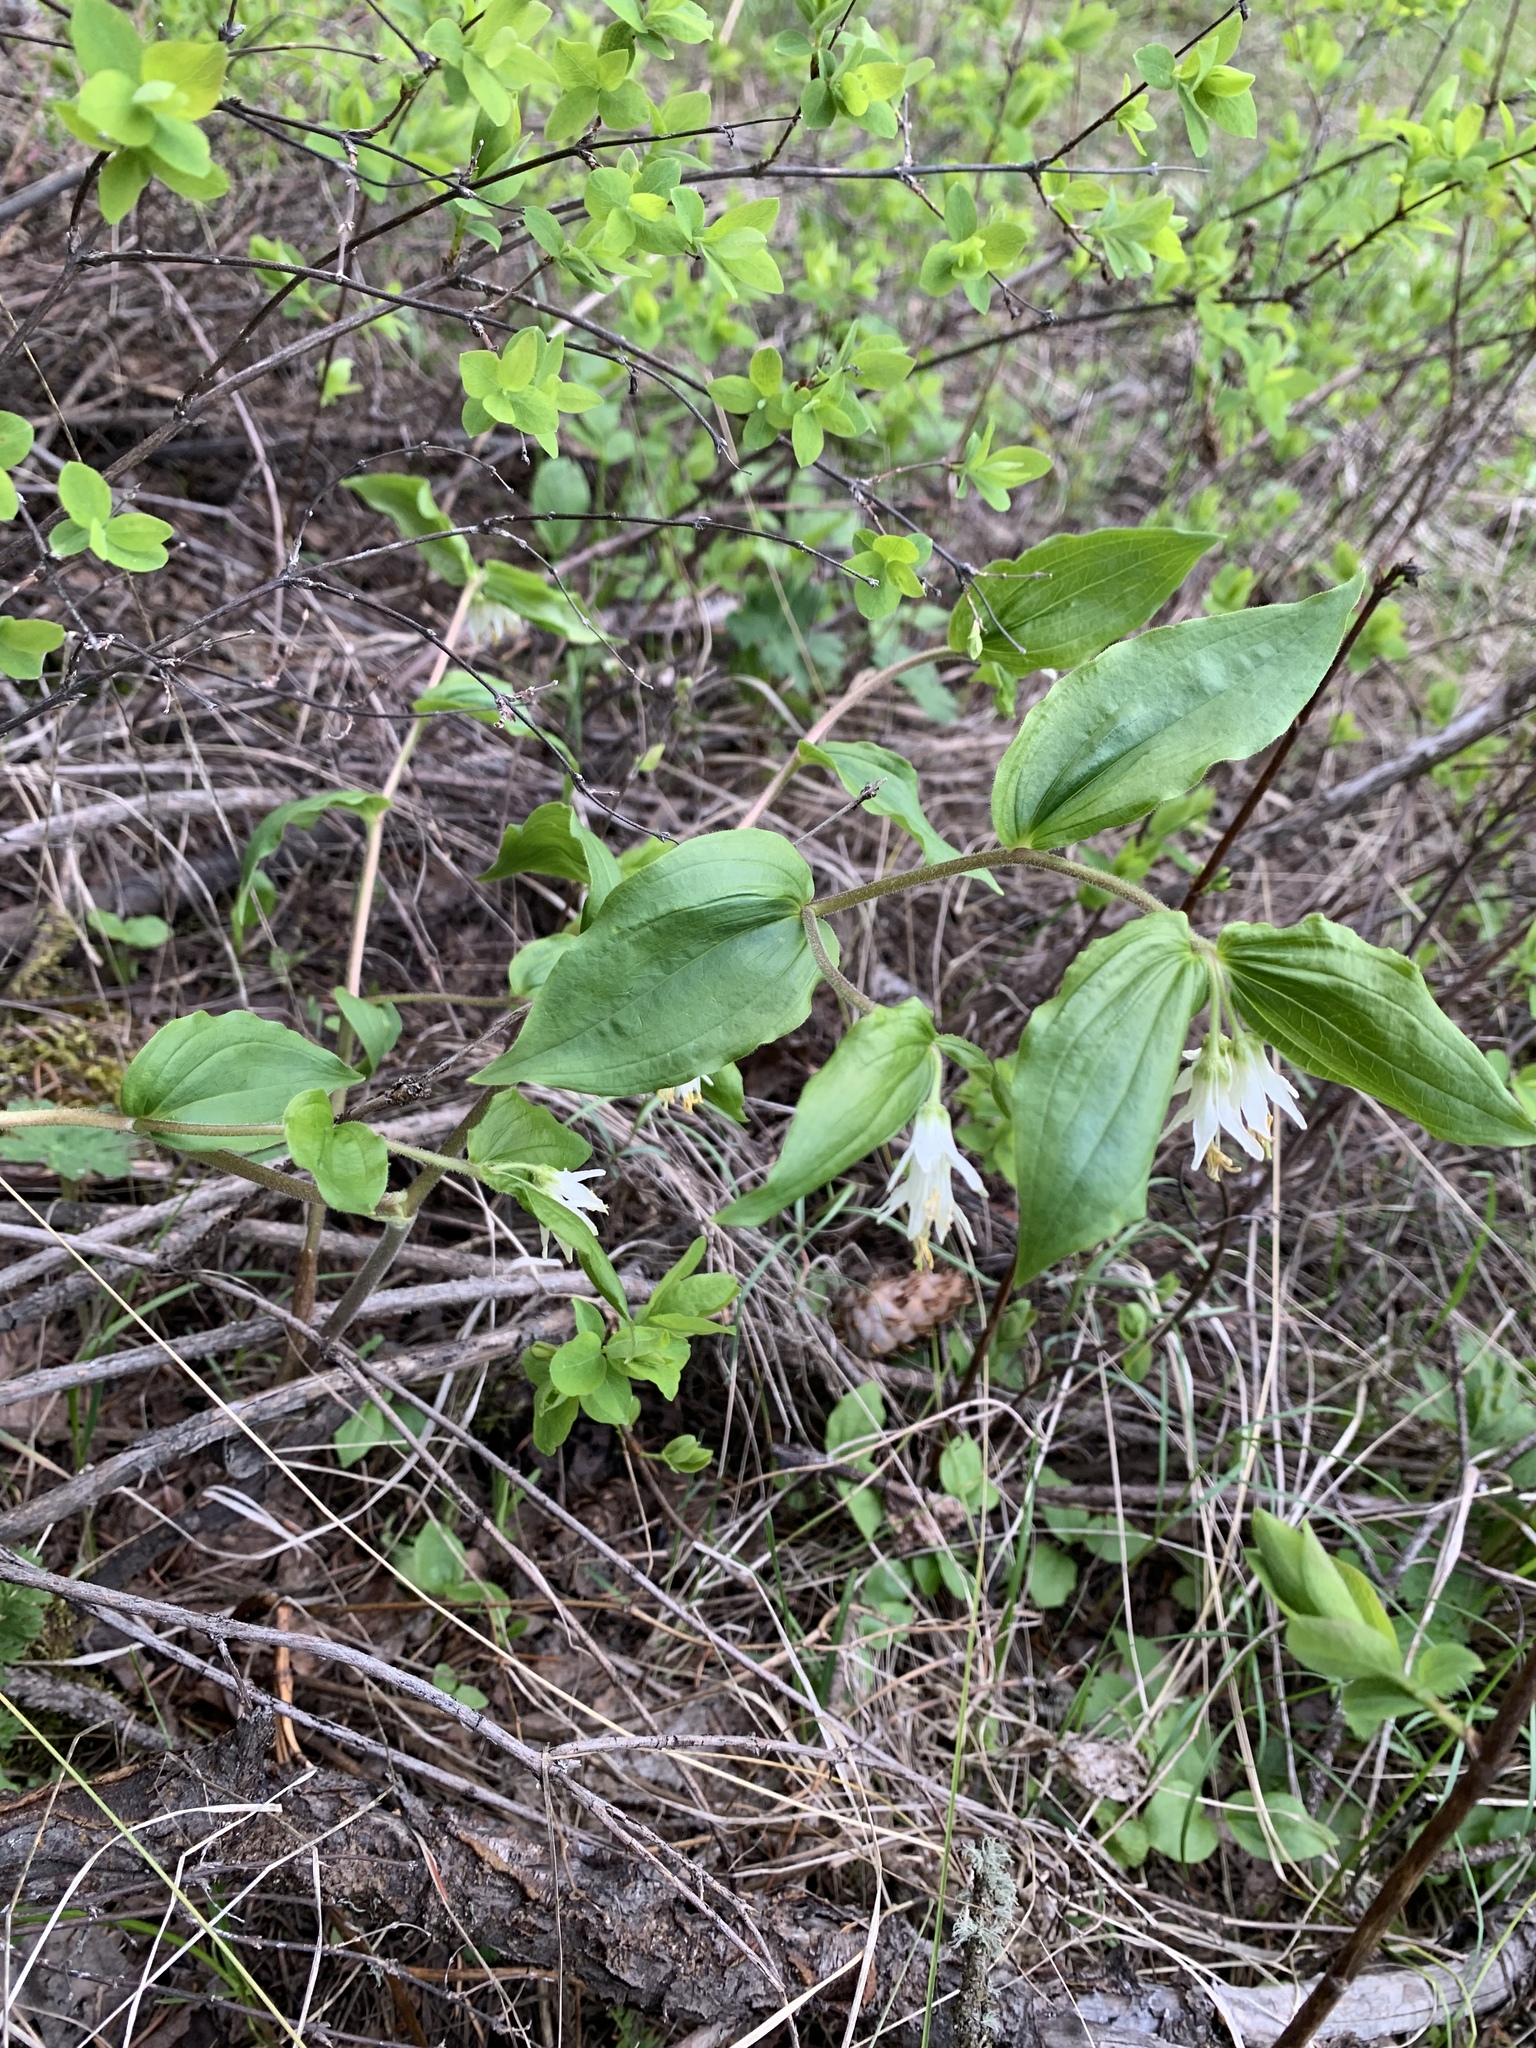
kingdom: Plantae
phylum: Tracheophyta
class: Liliopsida
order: Liliales
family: Liliaceae
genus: Prosartes
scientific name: Prosartes trachycarpa
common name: Rough-fruit fairy-bells
